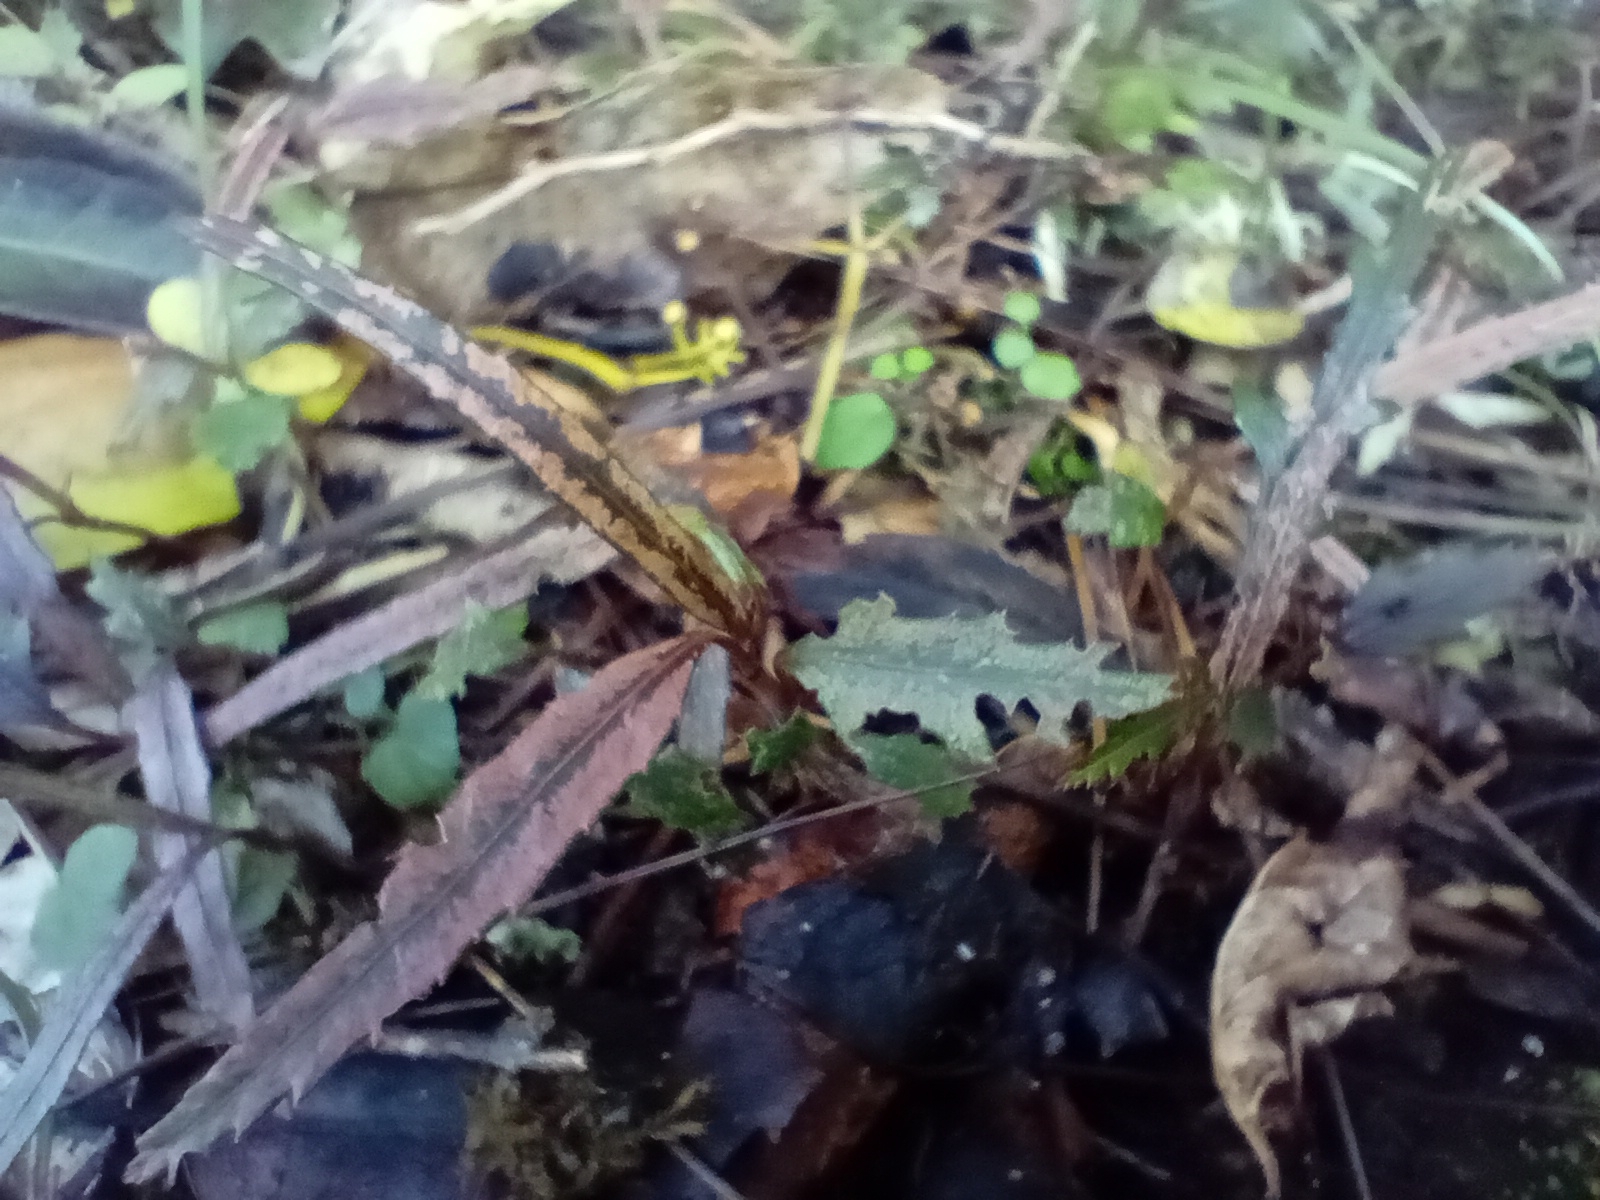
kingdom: Plantae
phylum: Tracheophyta
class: Magnoliopsida
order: Apiales
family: Araliaceae
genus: Pseudopanax
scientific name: Pseudopanax crassifolius
